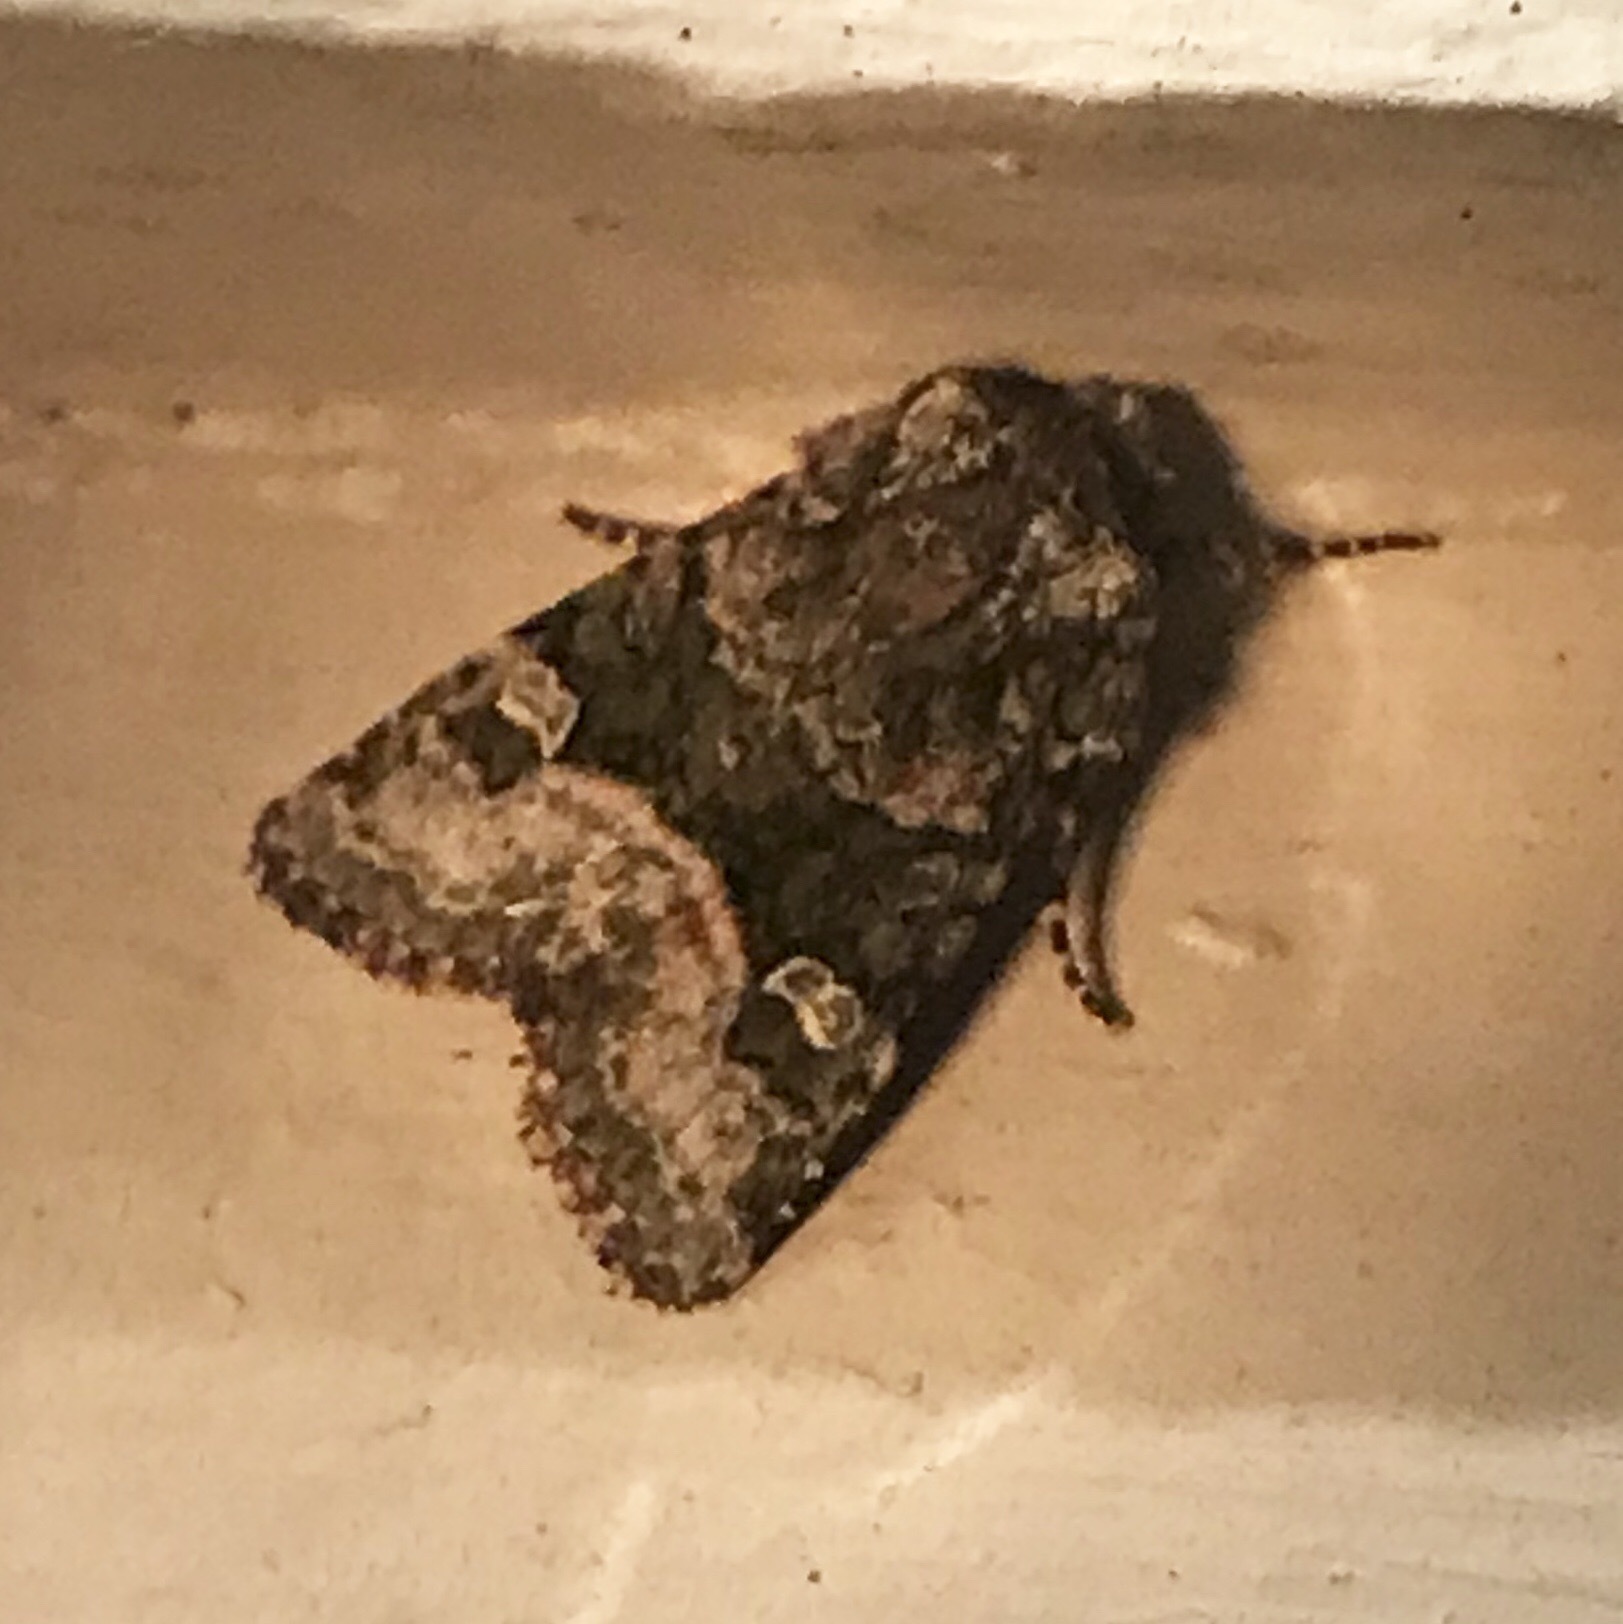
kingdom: Animalia
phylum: Arthropoda
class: Insecta
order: Lepidoptera
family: Noctuidae
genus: Lacinipolia
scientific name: Lacinipolia olivacea
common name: Olive arches moth
